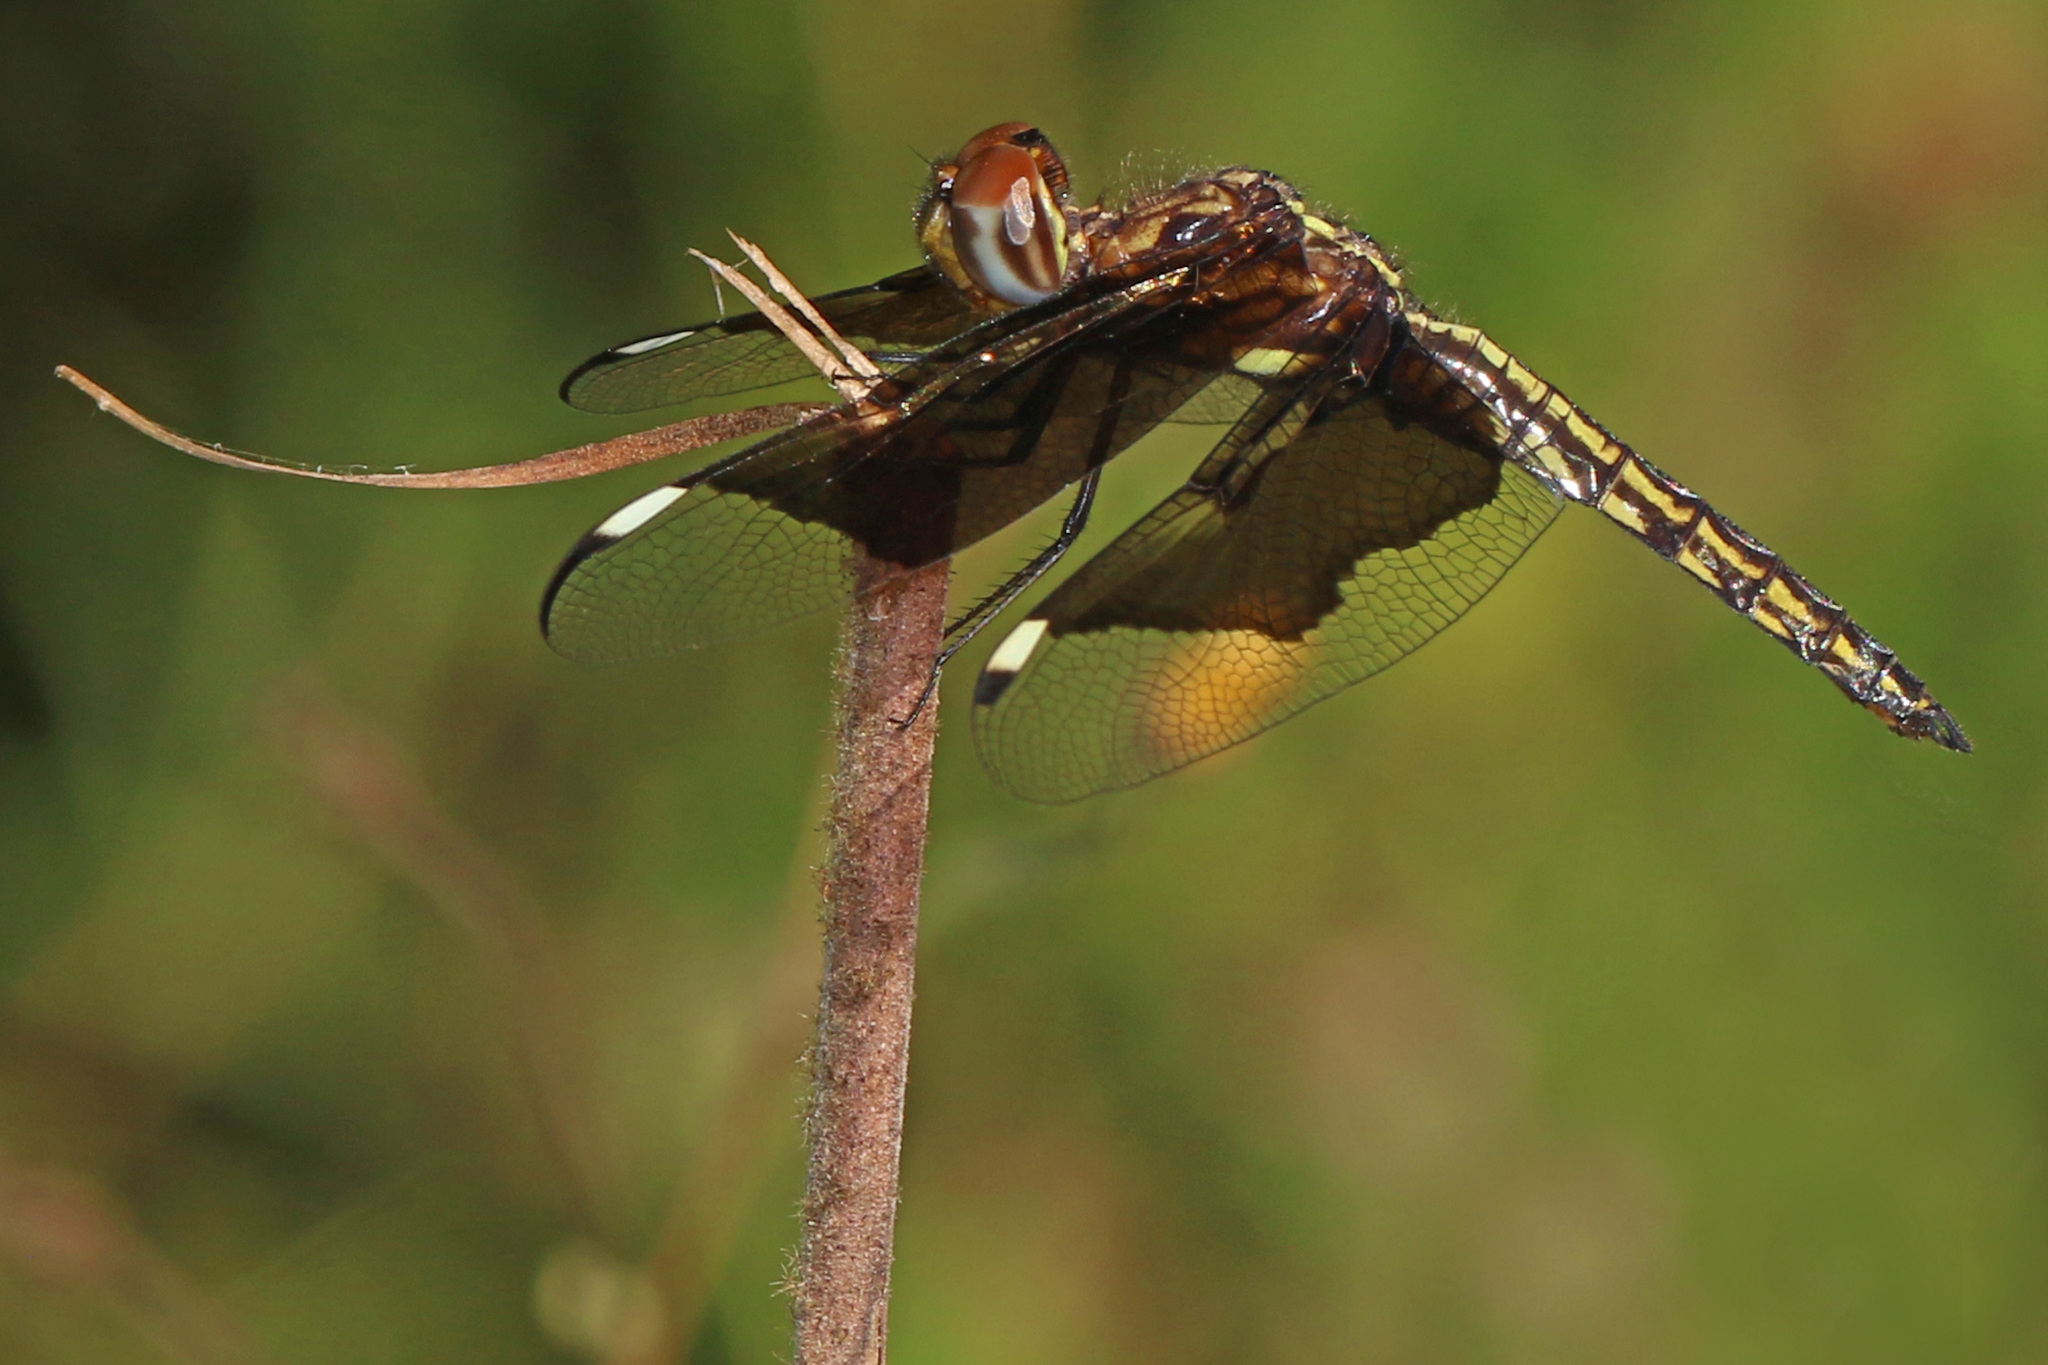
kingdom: Animalia
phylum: Arthropoda
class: Insecta
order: Odonata
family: Libellulidae
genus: Palpopleura
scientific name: Palpopleura lucia
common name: Lucia widow
